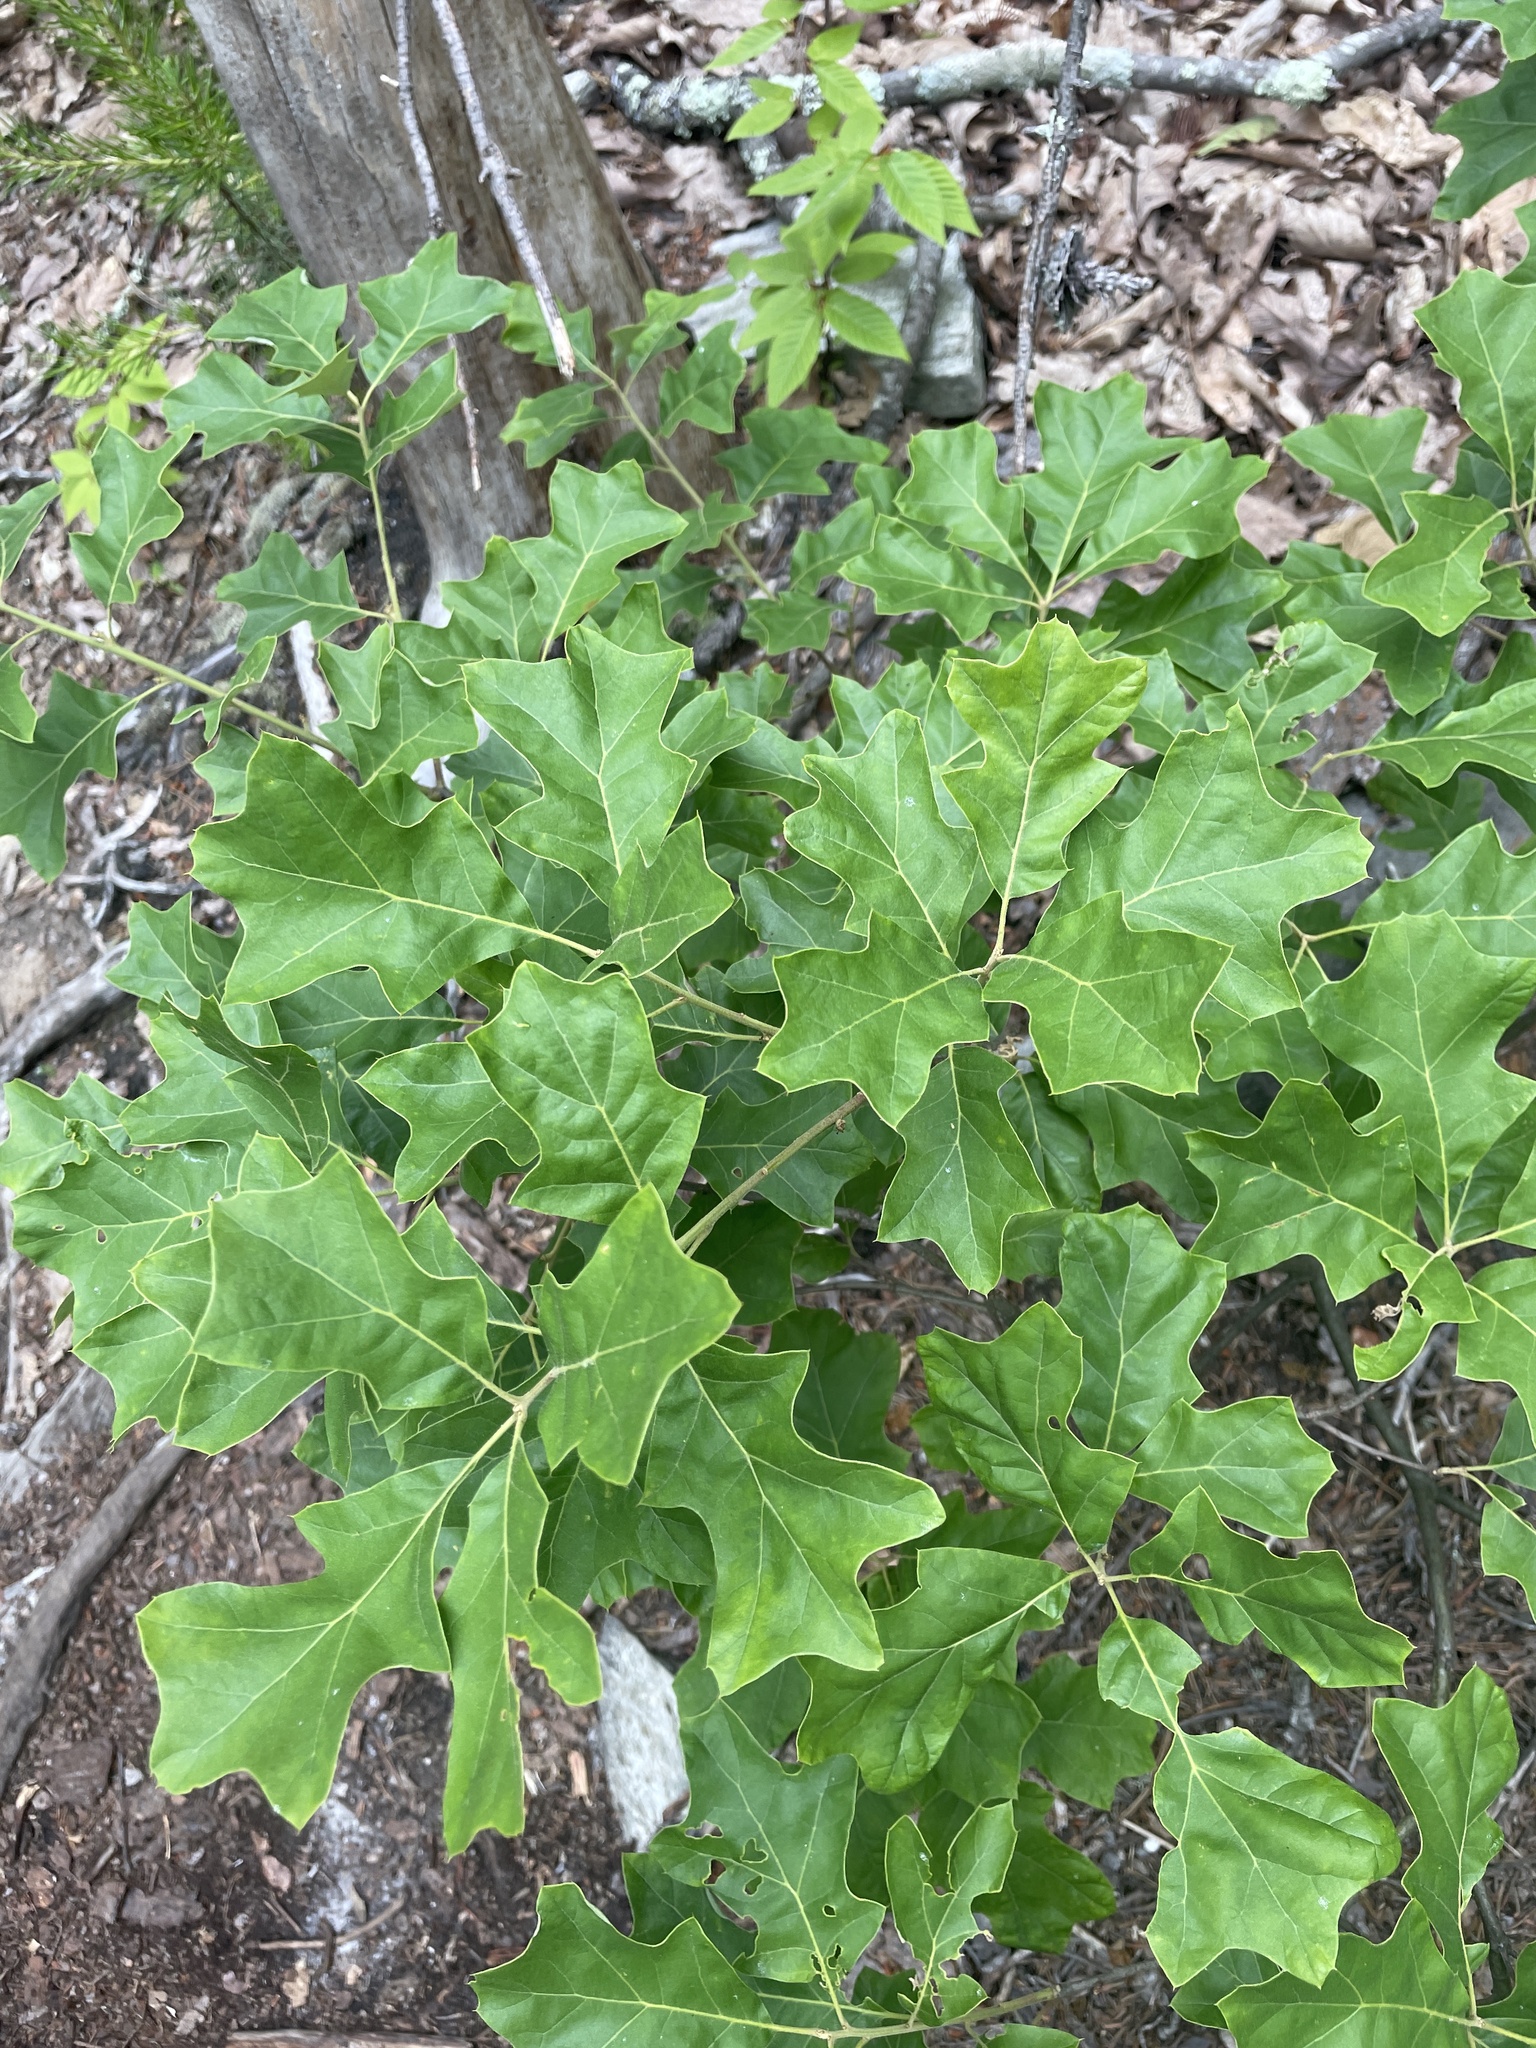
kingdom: Plantae
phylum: Tracheophyta
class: Magnoliopsida
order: Fagales
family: Fagaceae
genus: Quercus
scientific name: Quercus ilicifolia
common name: Bear oak
